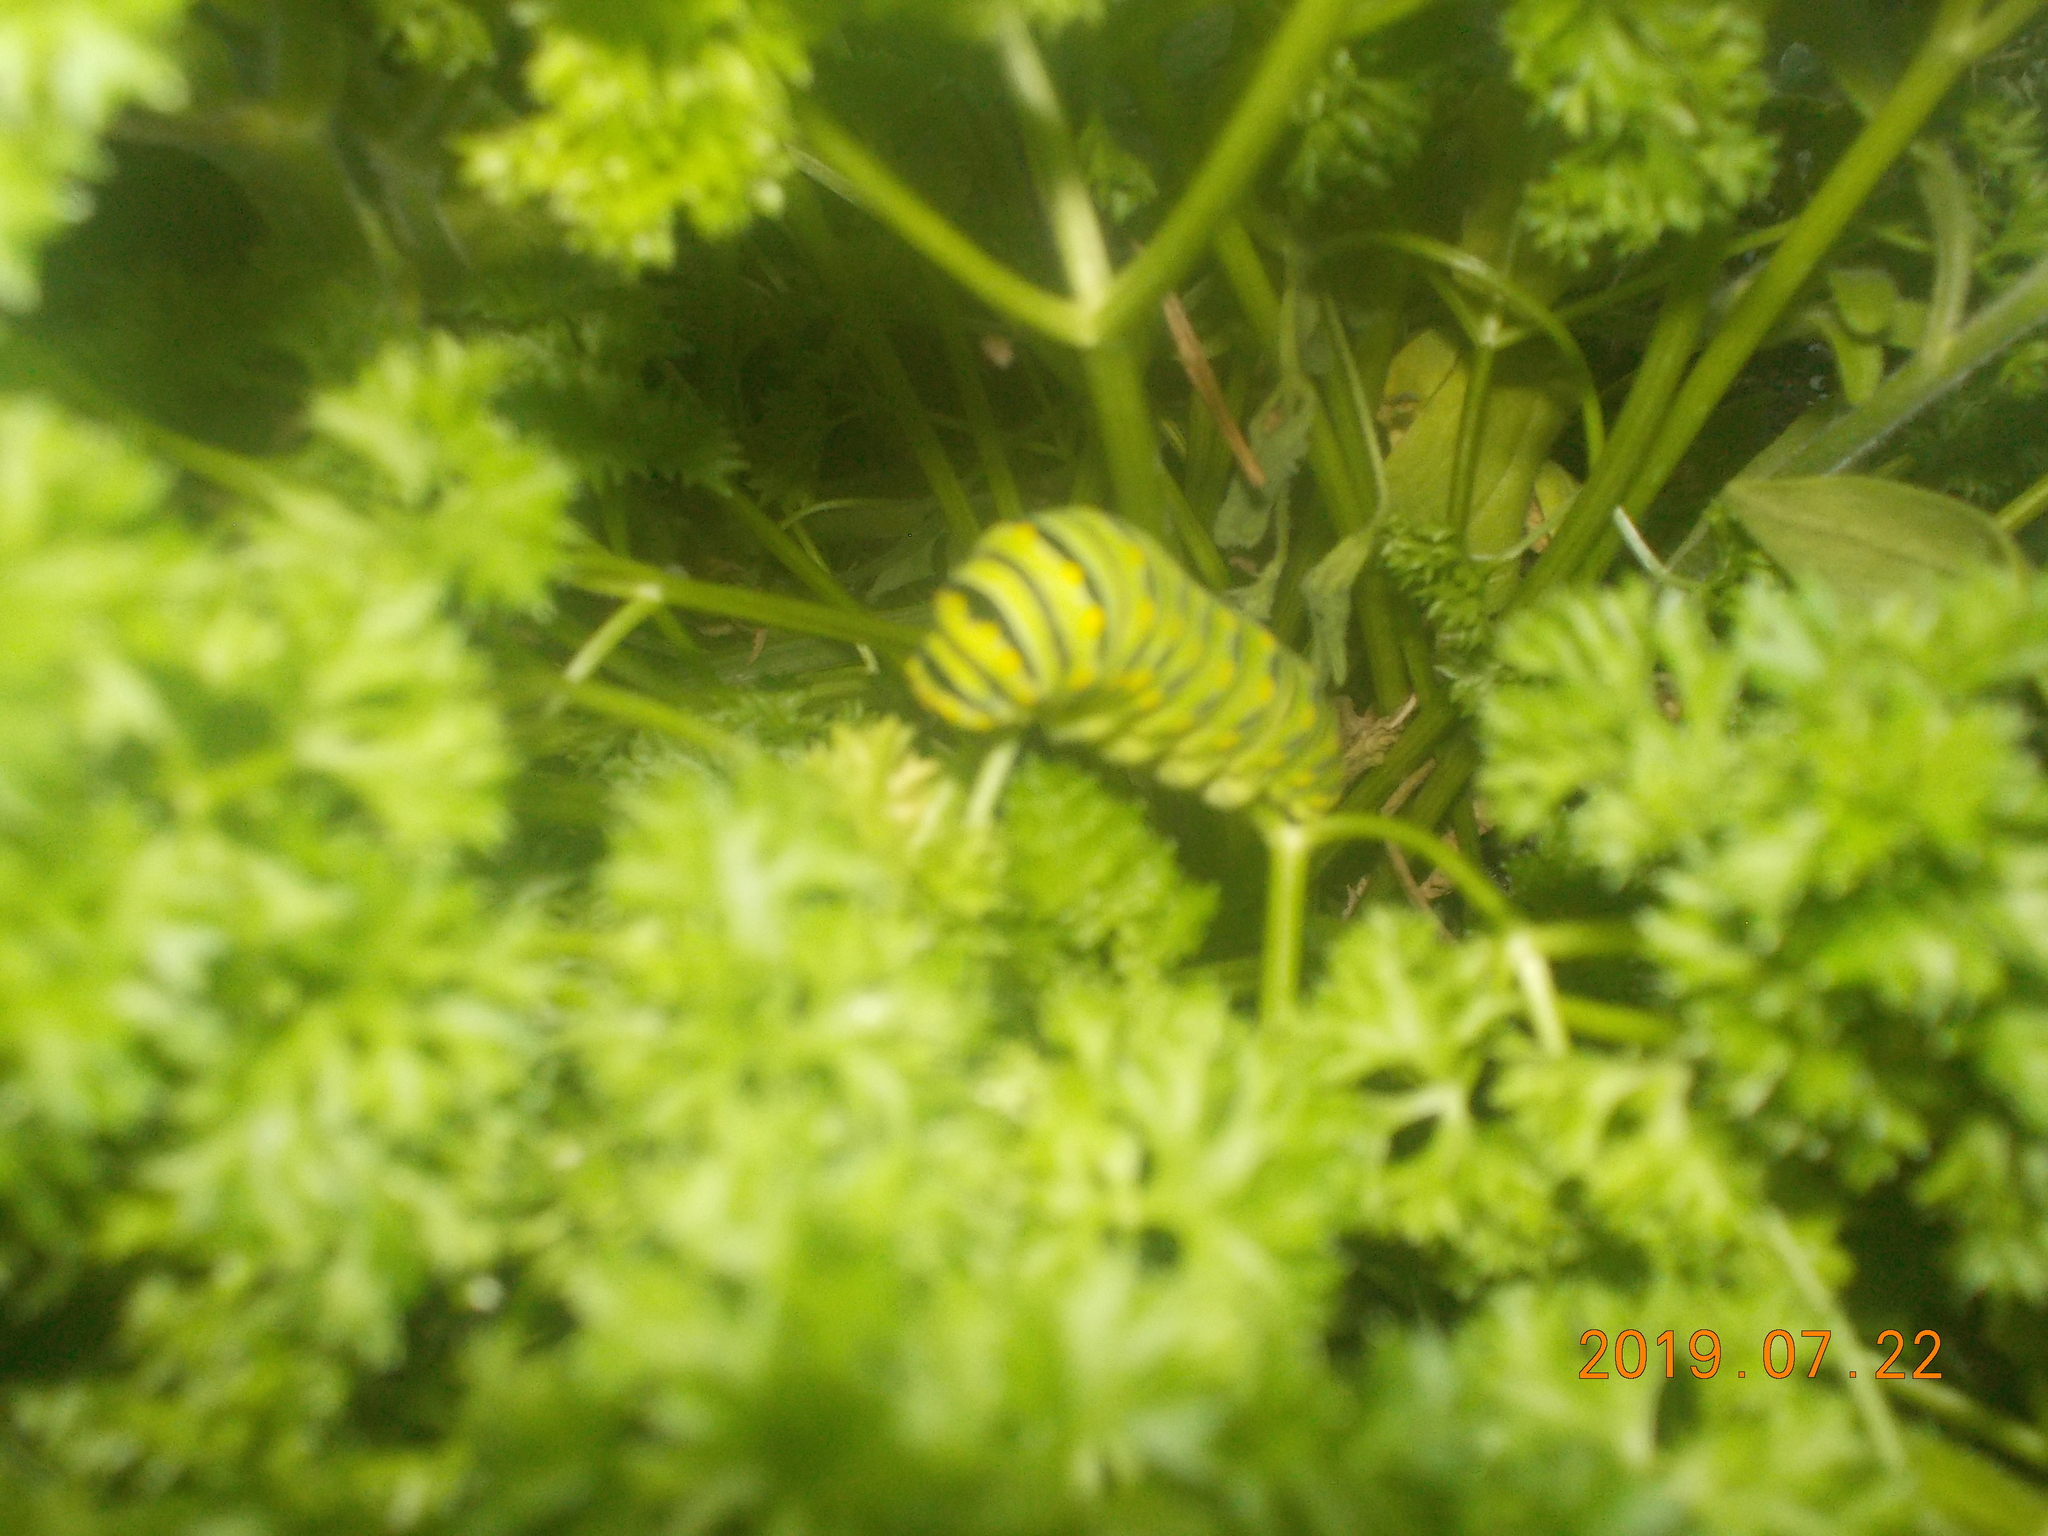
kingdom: Animalia
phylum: Arthropoda
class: Insecta
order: Lepidoptera
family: Papilionidae
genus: Papilio
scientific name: Papilio polyxenes
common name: Black swallowtail
